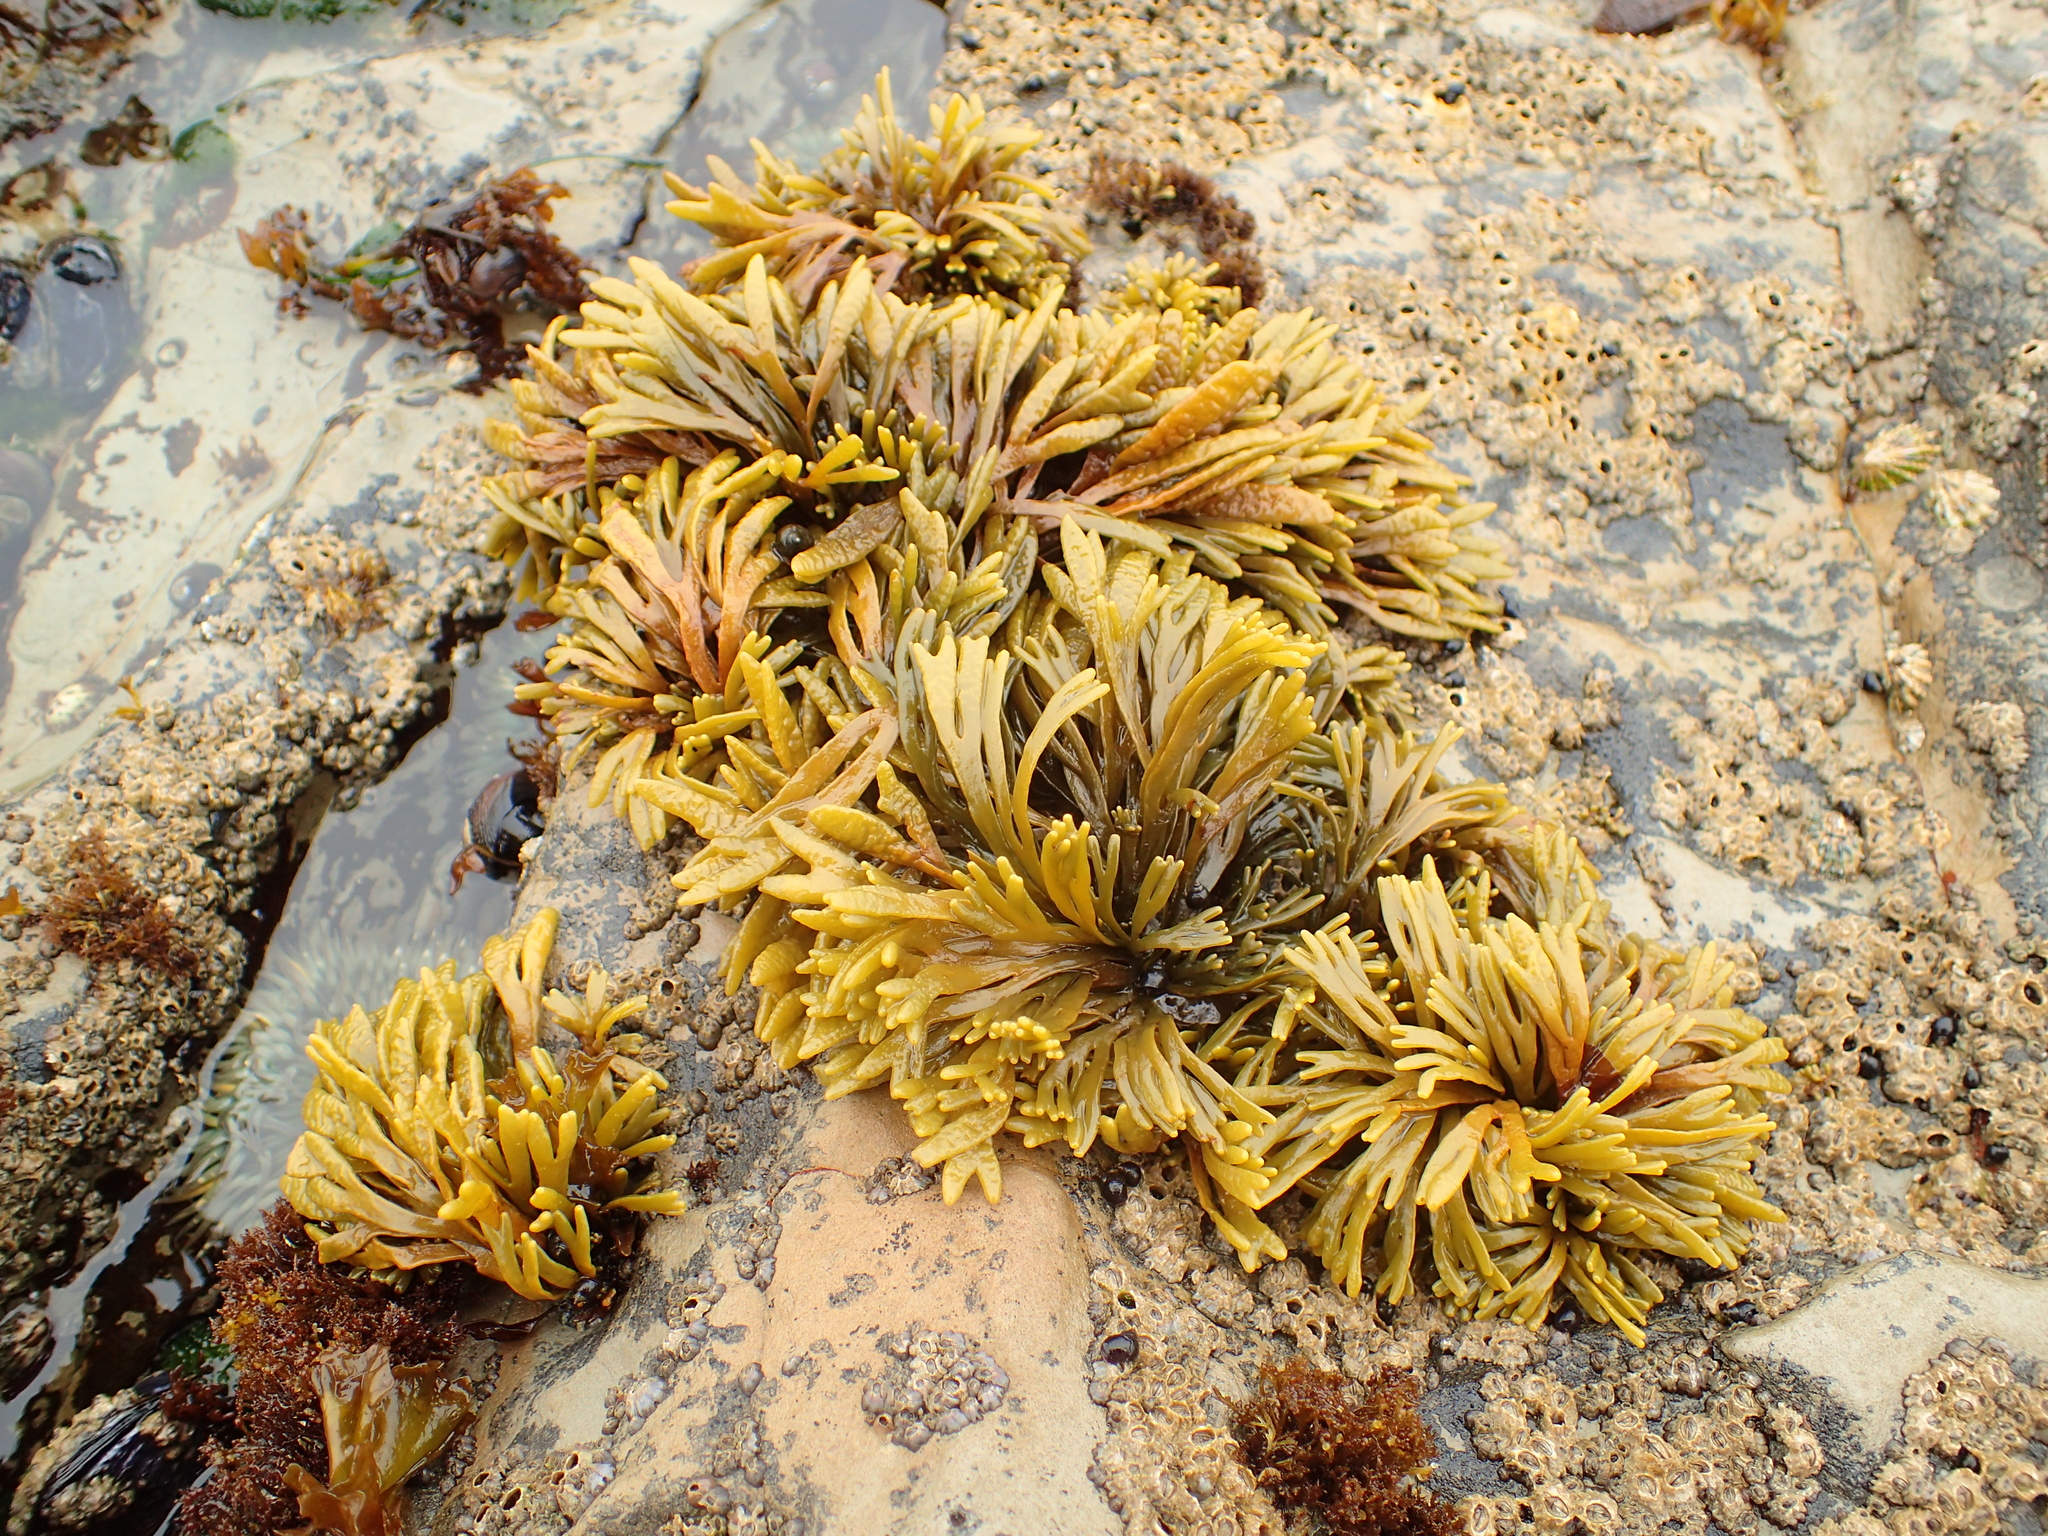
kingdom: Chromista
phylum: Ochrophyta
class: Phaeophyceae
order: Fucales
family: Fucaceae
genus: Pelvetiopsis
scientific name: Pelvetiopsis limitata
